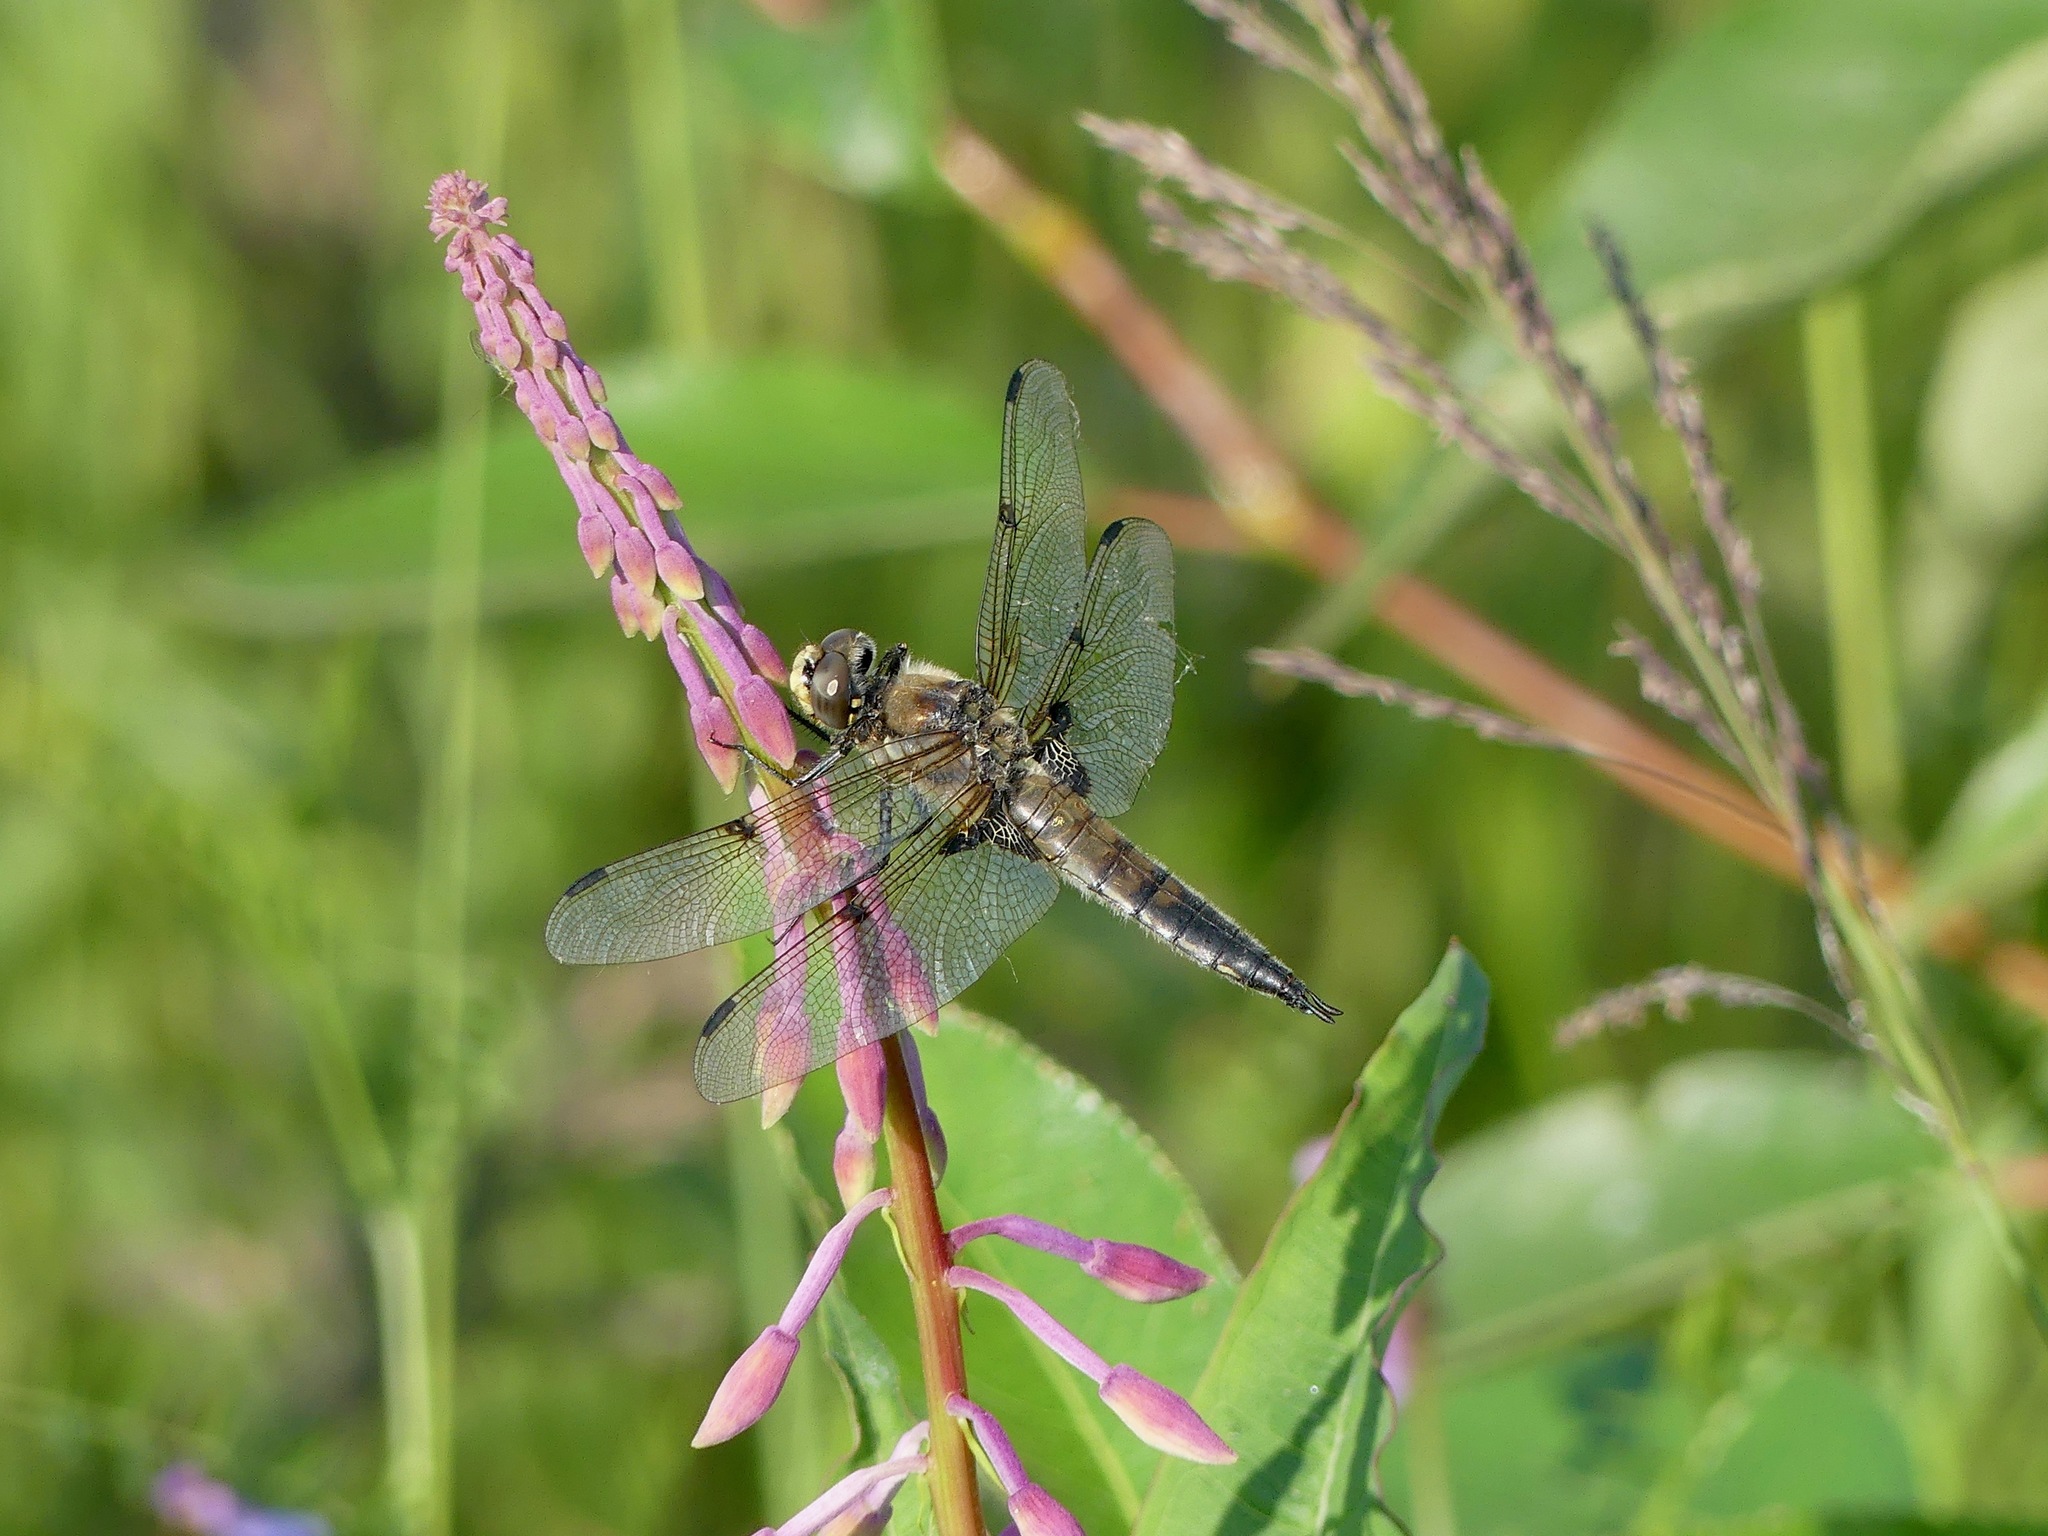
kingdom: Animalia
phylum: Arthropoda
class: Insecta
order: Odonata
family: Libellulidae
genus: Libellula
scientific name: Libellula quadrimaculata
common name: Four-spotted chaser
